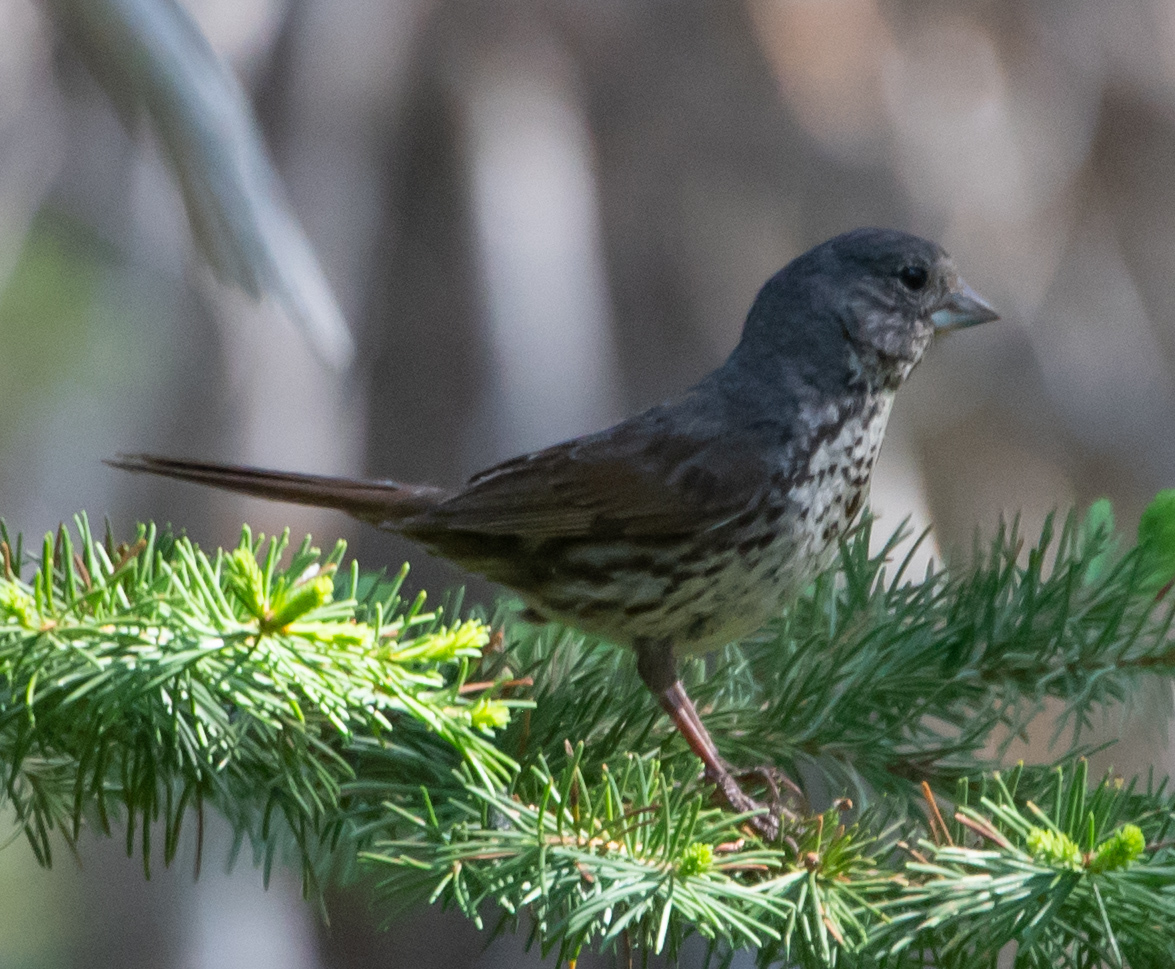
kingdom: Animalia
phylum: Chordata
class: Aves
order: Passeriformes
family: Passerellidae
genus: Passerella
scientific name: Passerella iliaca
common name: Fox sparrow
